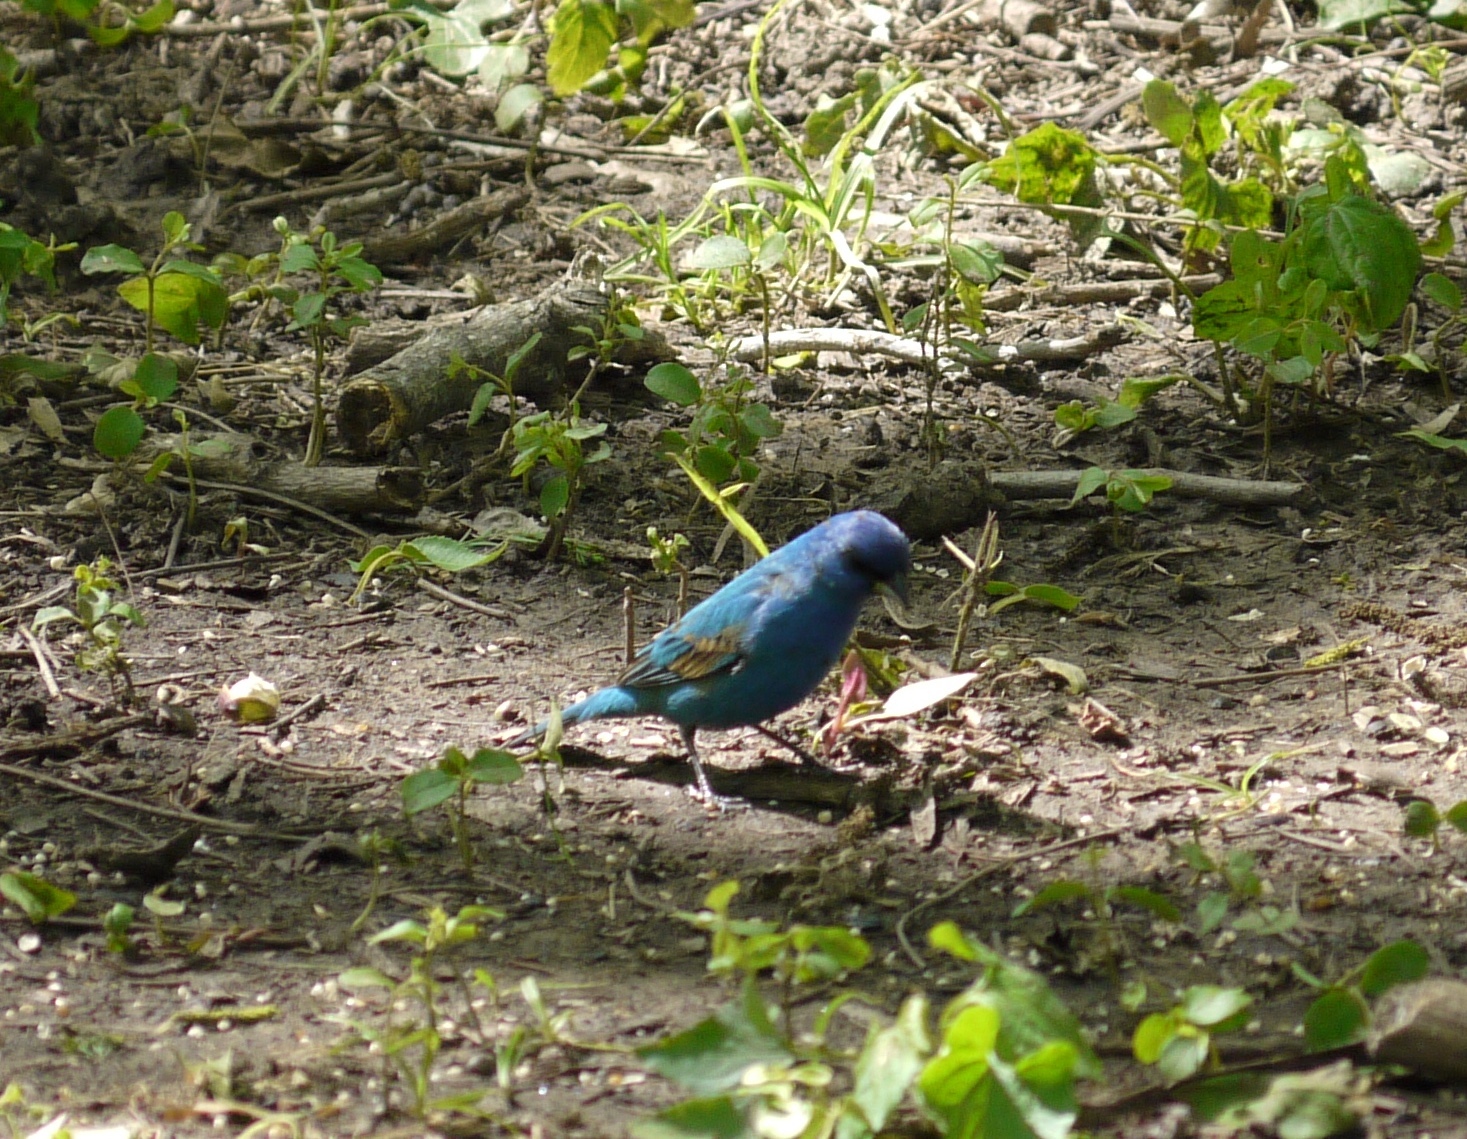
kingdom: Animalia
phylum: Chordata
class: Aves
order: Passeriformes
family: Cardinalidae
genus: Passerina
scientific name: Passerina cyanea
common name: Indigo bunting
